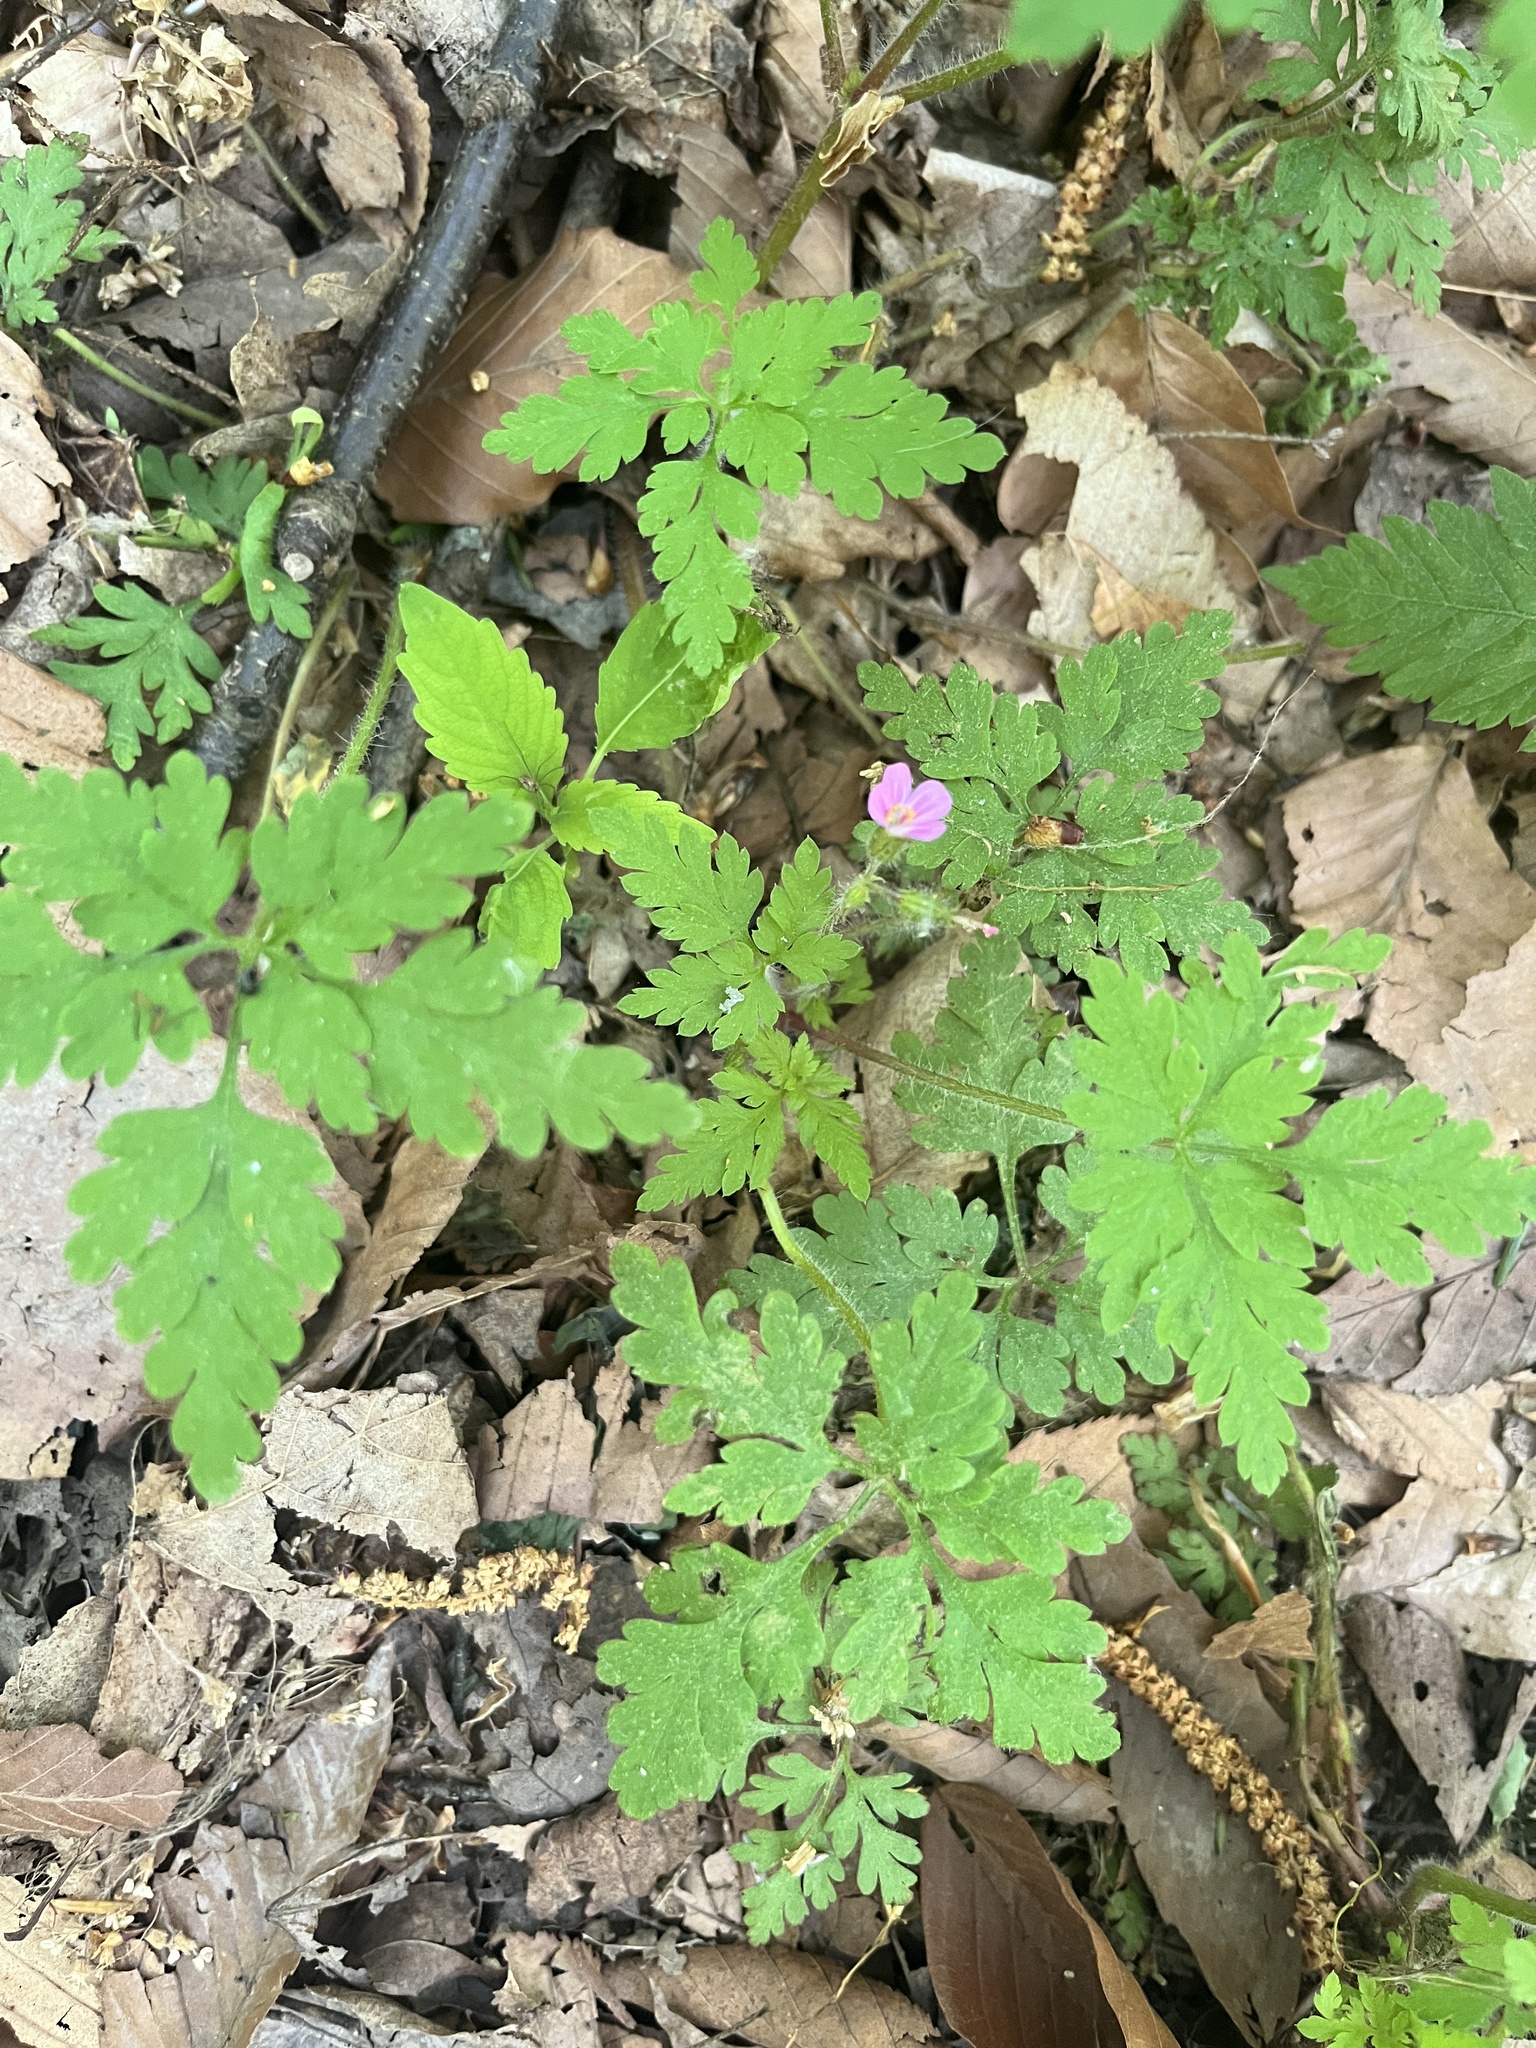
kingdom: Plantae
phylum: Tracheophyta
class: Magnoliopsida
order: Geraniales
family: Geraniaceae
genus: Geranium
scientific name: Geranium robertianum
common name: Herb-robert
